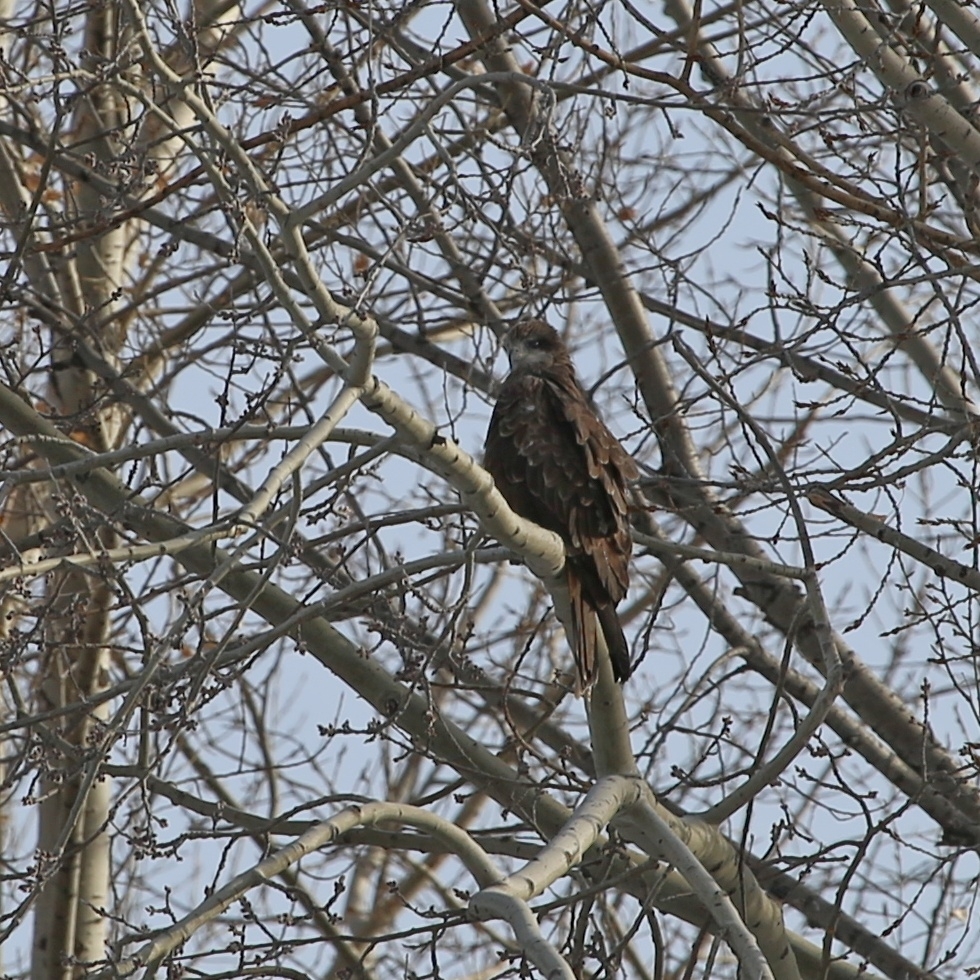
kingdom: Animalia
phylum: Chordata
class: Aves
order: Accipitriformes
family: Accipitridae
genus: Milvus
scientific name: Milvus migrans
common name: Black kite
